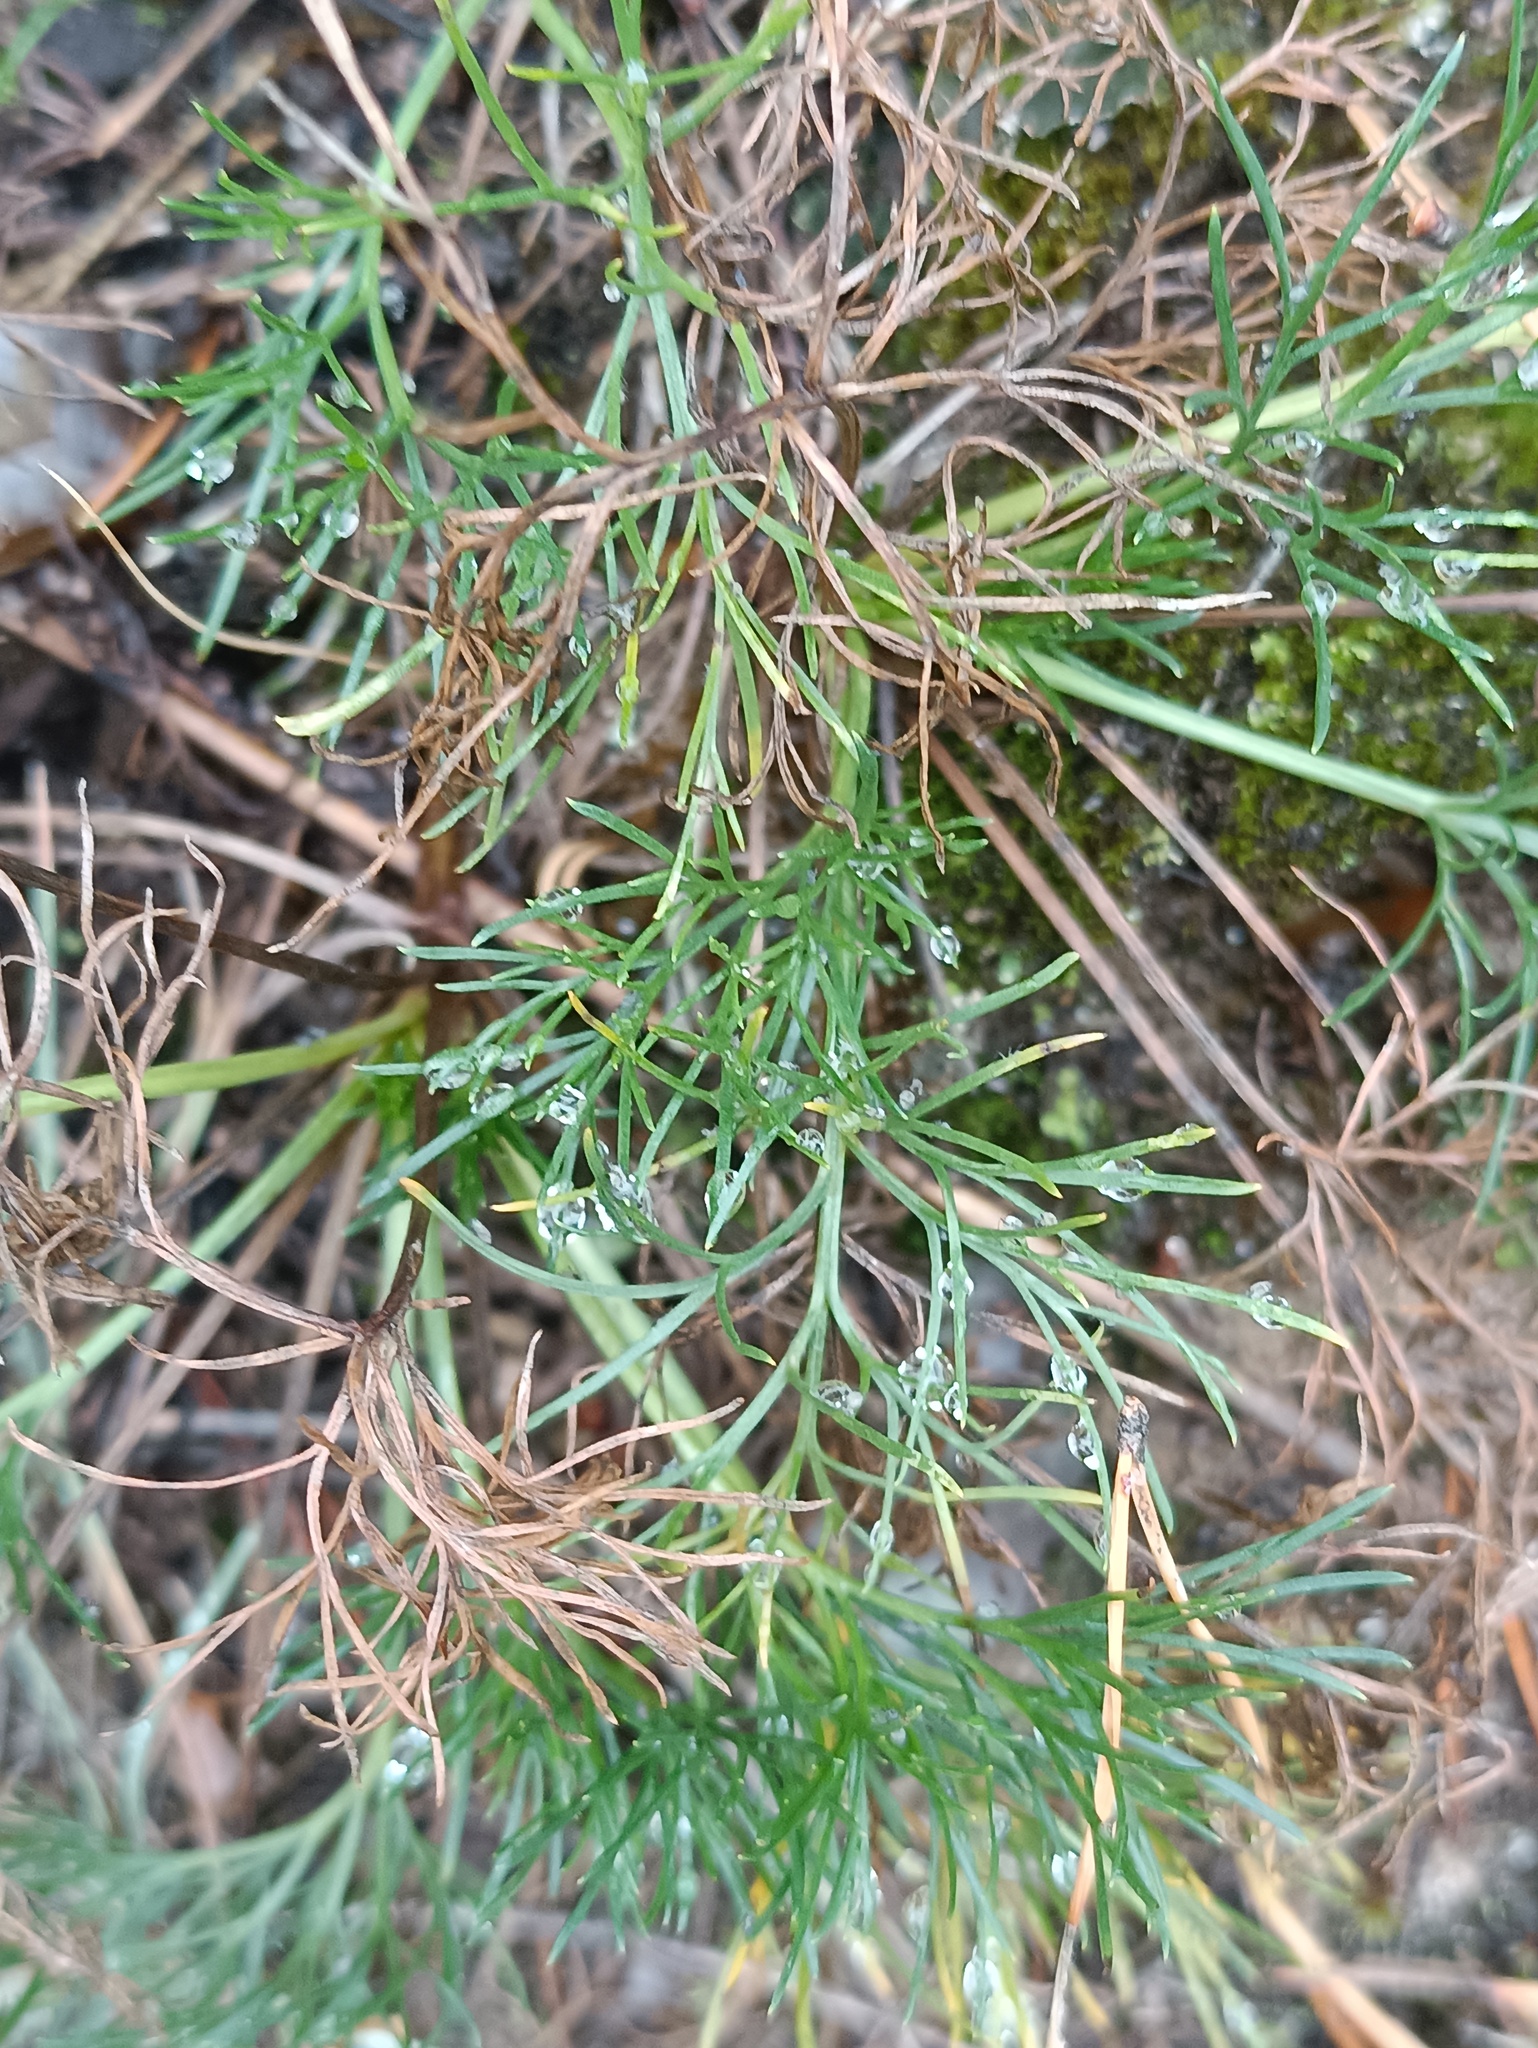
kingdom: Plantae
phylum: Tracheophyta
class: Magnoliopsida
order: Asterales
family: Asteraceae
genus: Artemisia
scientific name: Artemisia campestris
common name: Field wormwood
